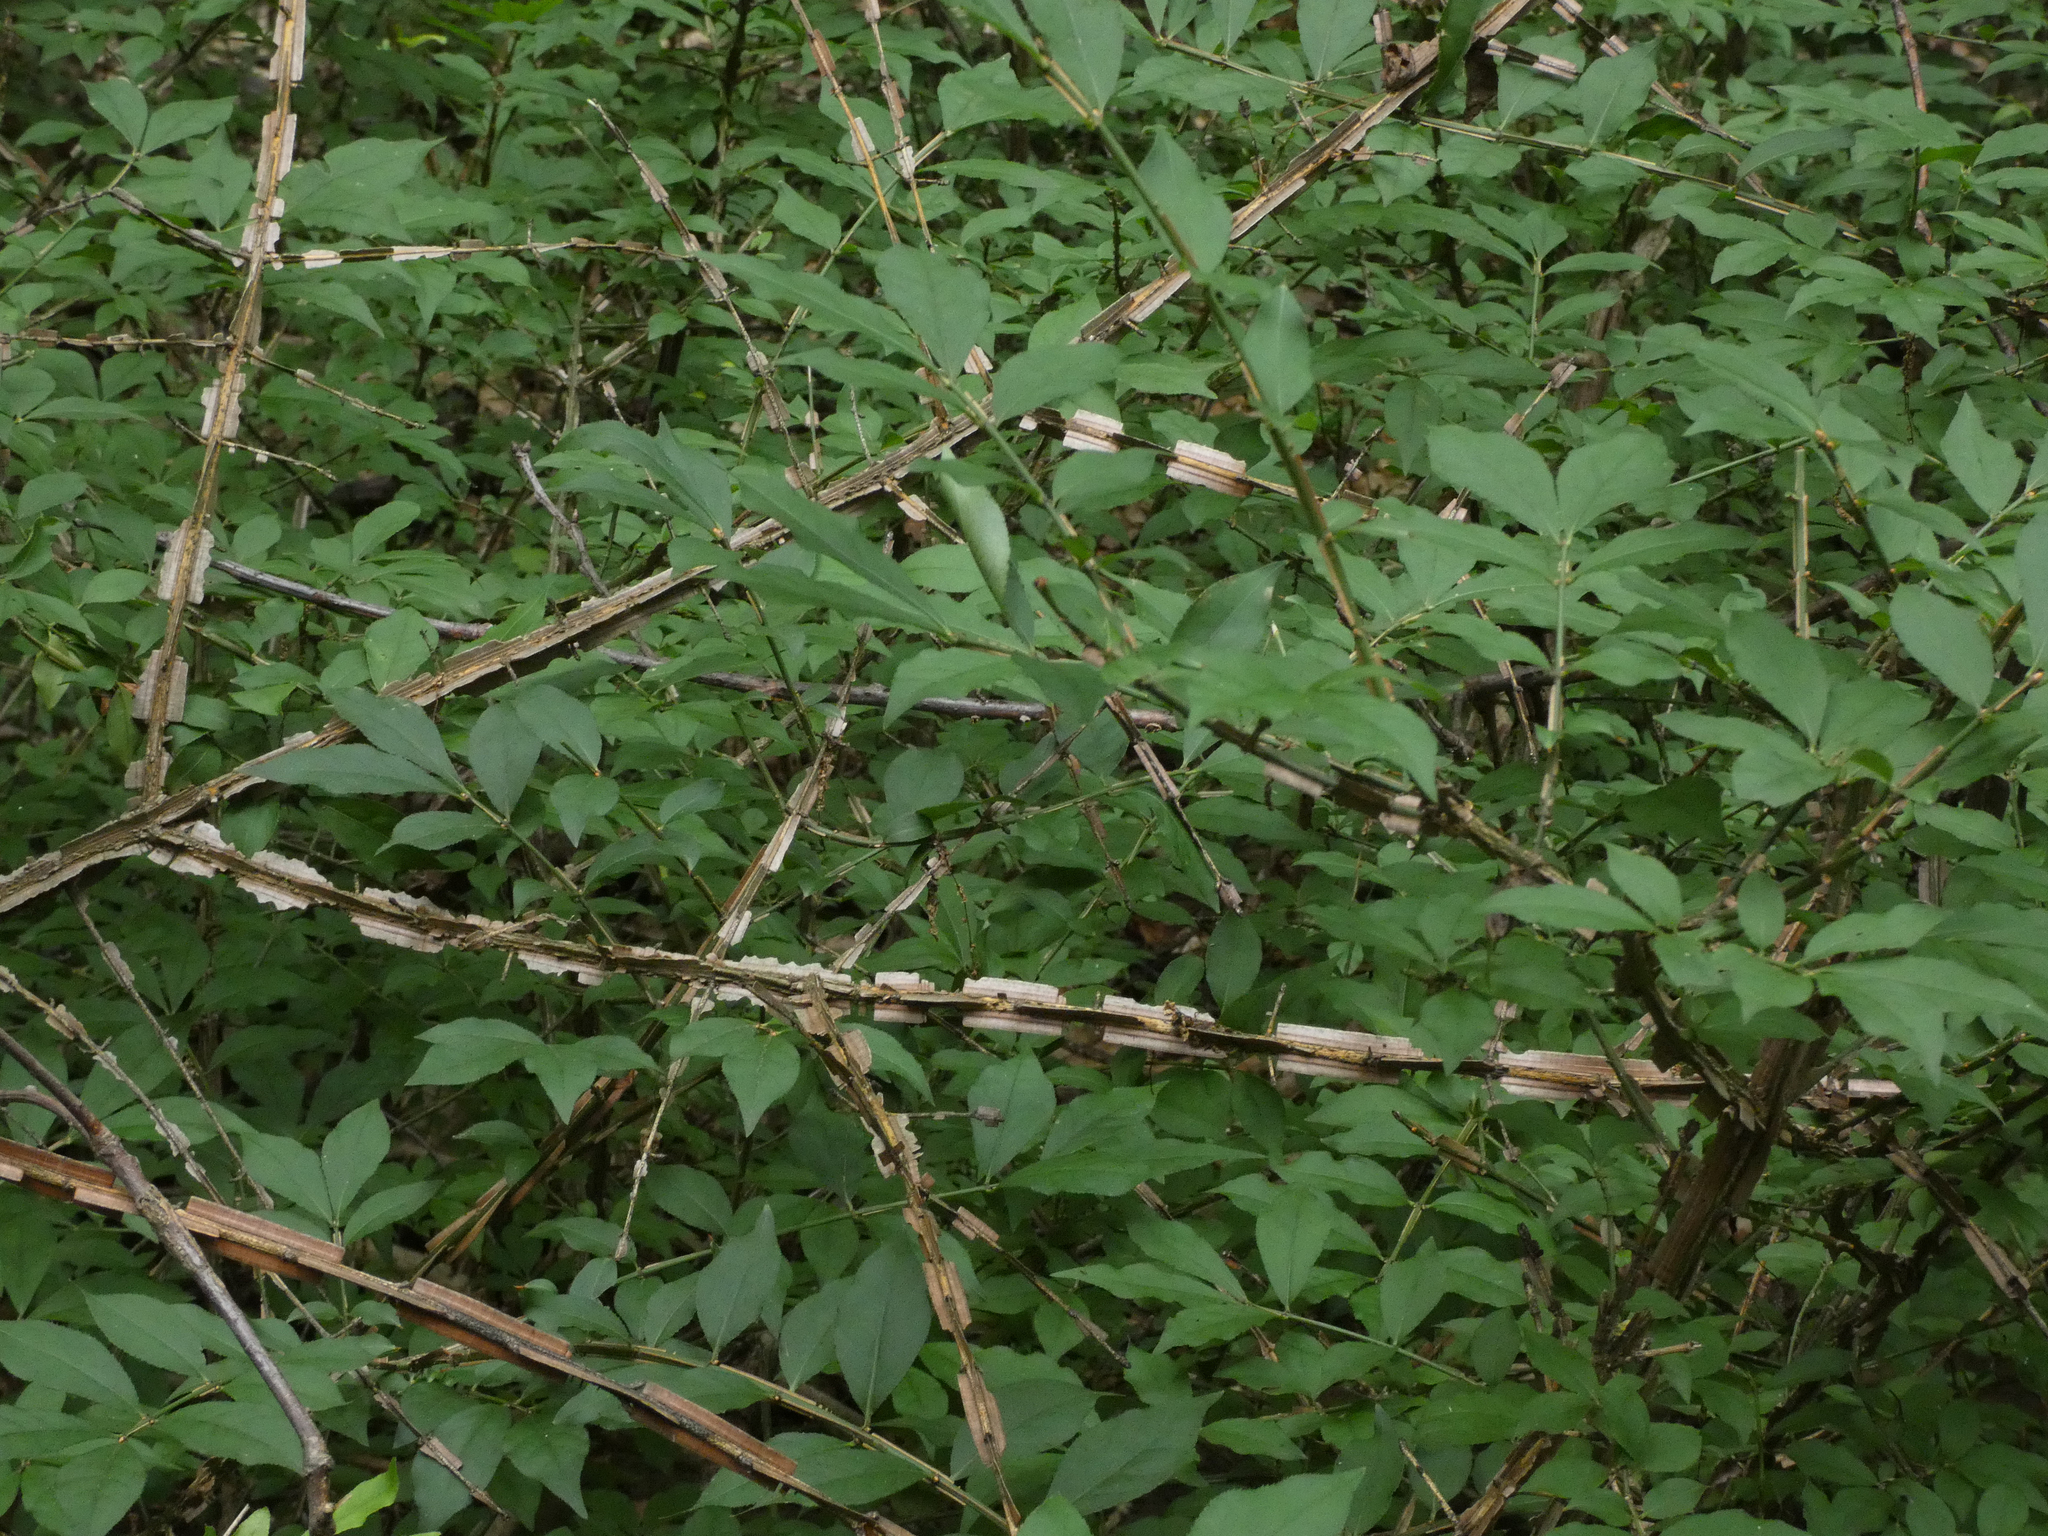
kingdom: Plantae
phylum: Tracheophyta
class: Magnoliopsida
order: Celastrales
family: Celastraceae
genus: Euonymus
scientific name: Euonymus alatus
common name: Winged euonymus
